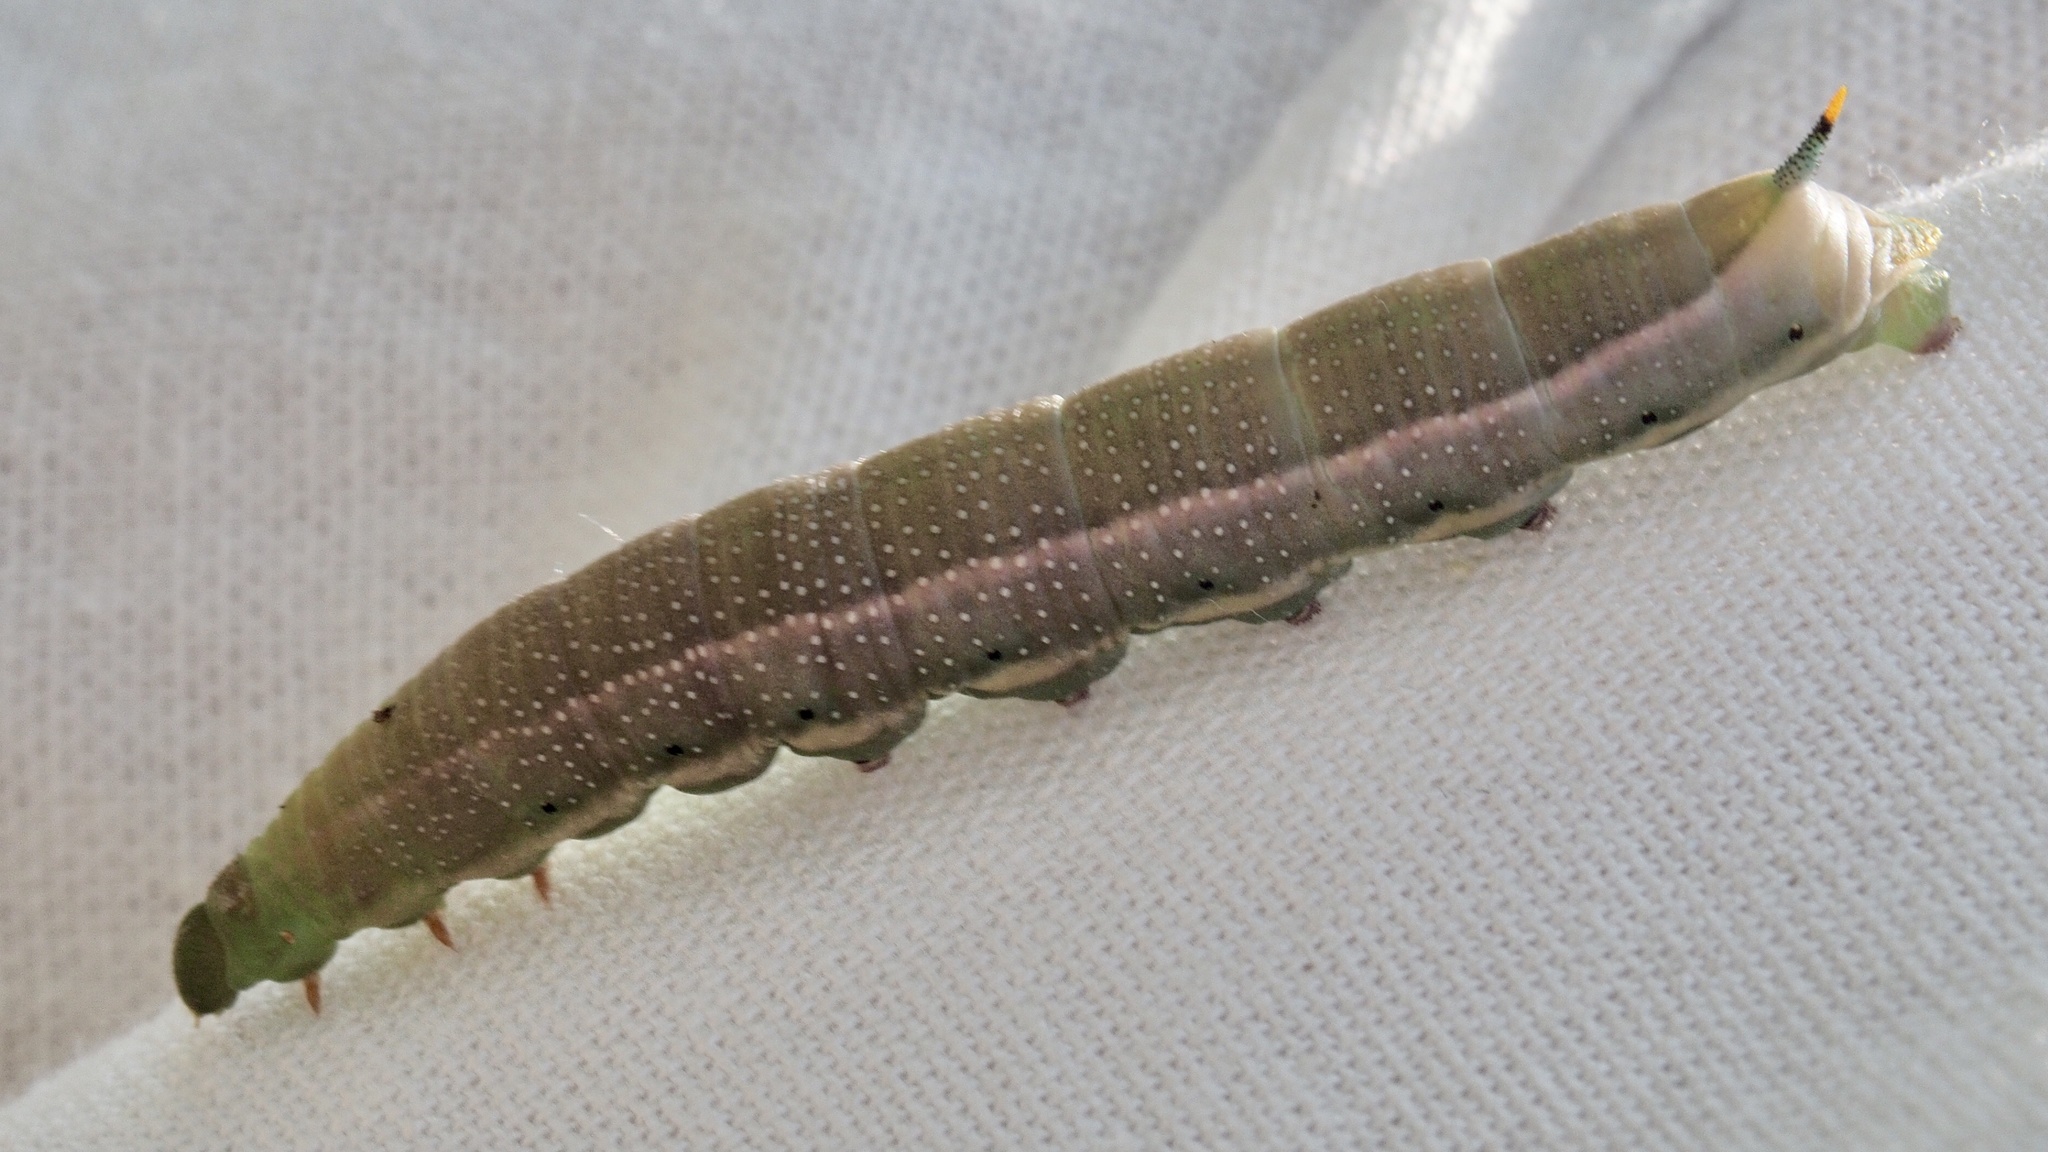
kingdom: Animalia
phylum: Arthropoda
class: Insecta
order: Lepidoptera
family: Sphingidae
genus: Macroglossum
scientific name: Macroglossum stellatarum
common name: Humming-bird hawk-moth
